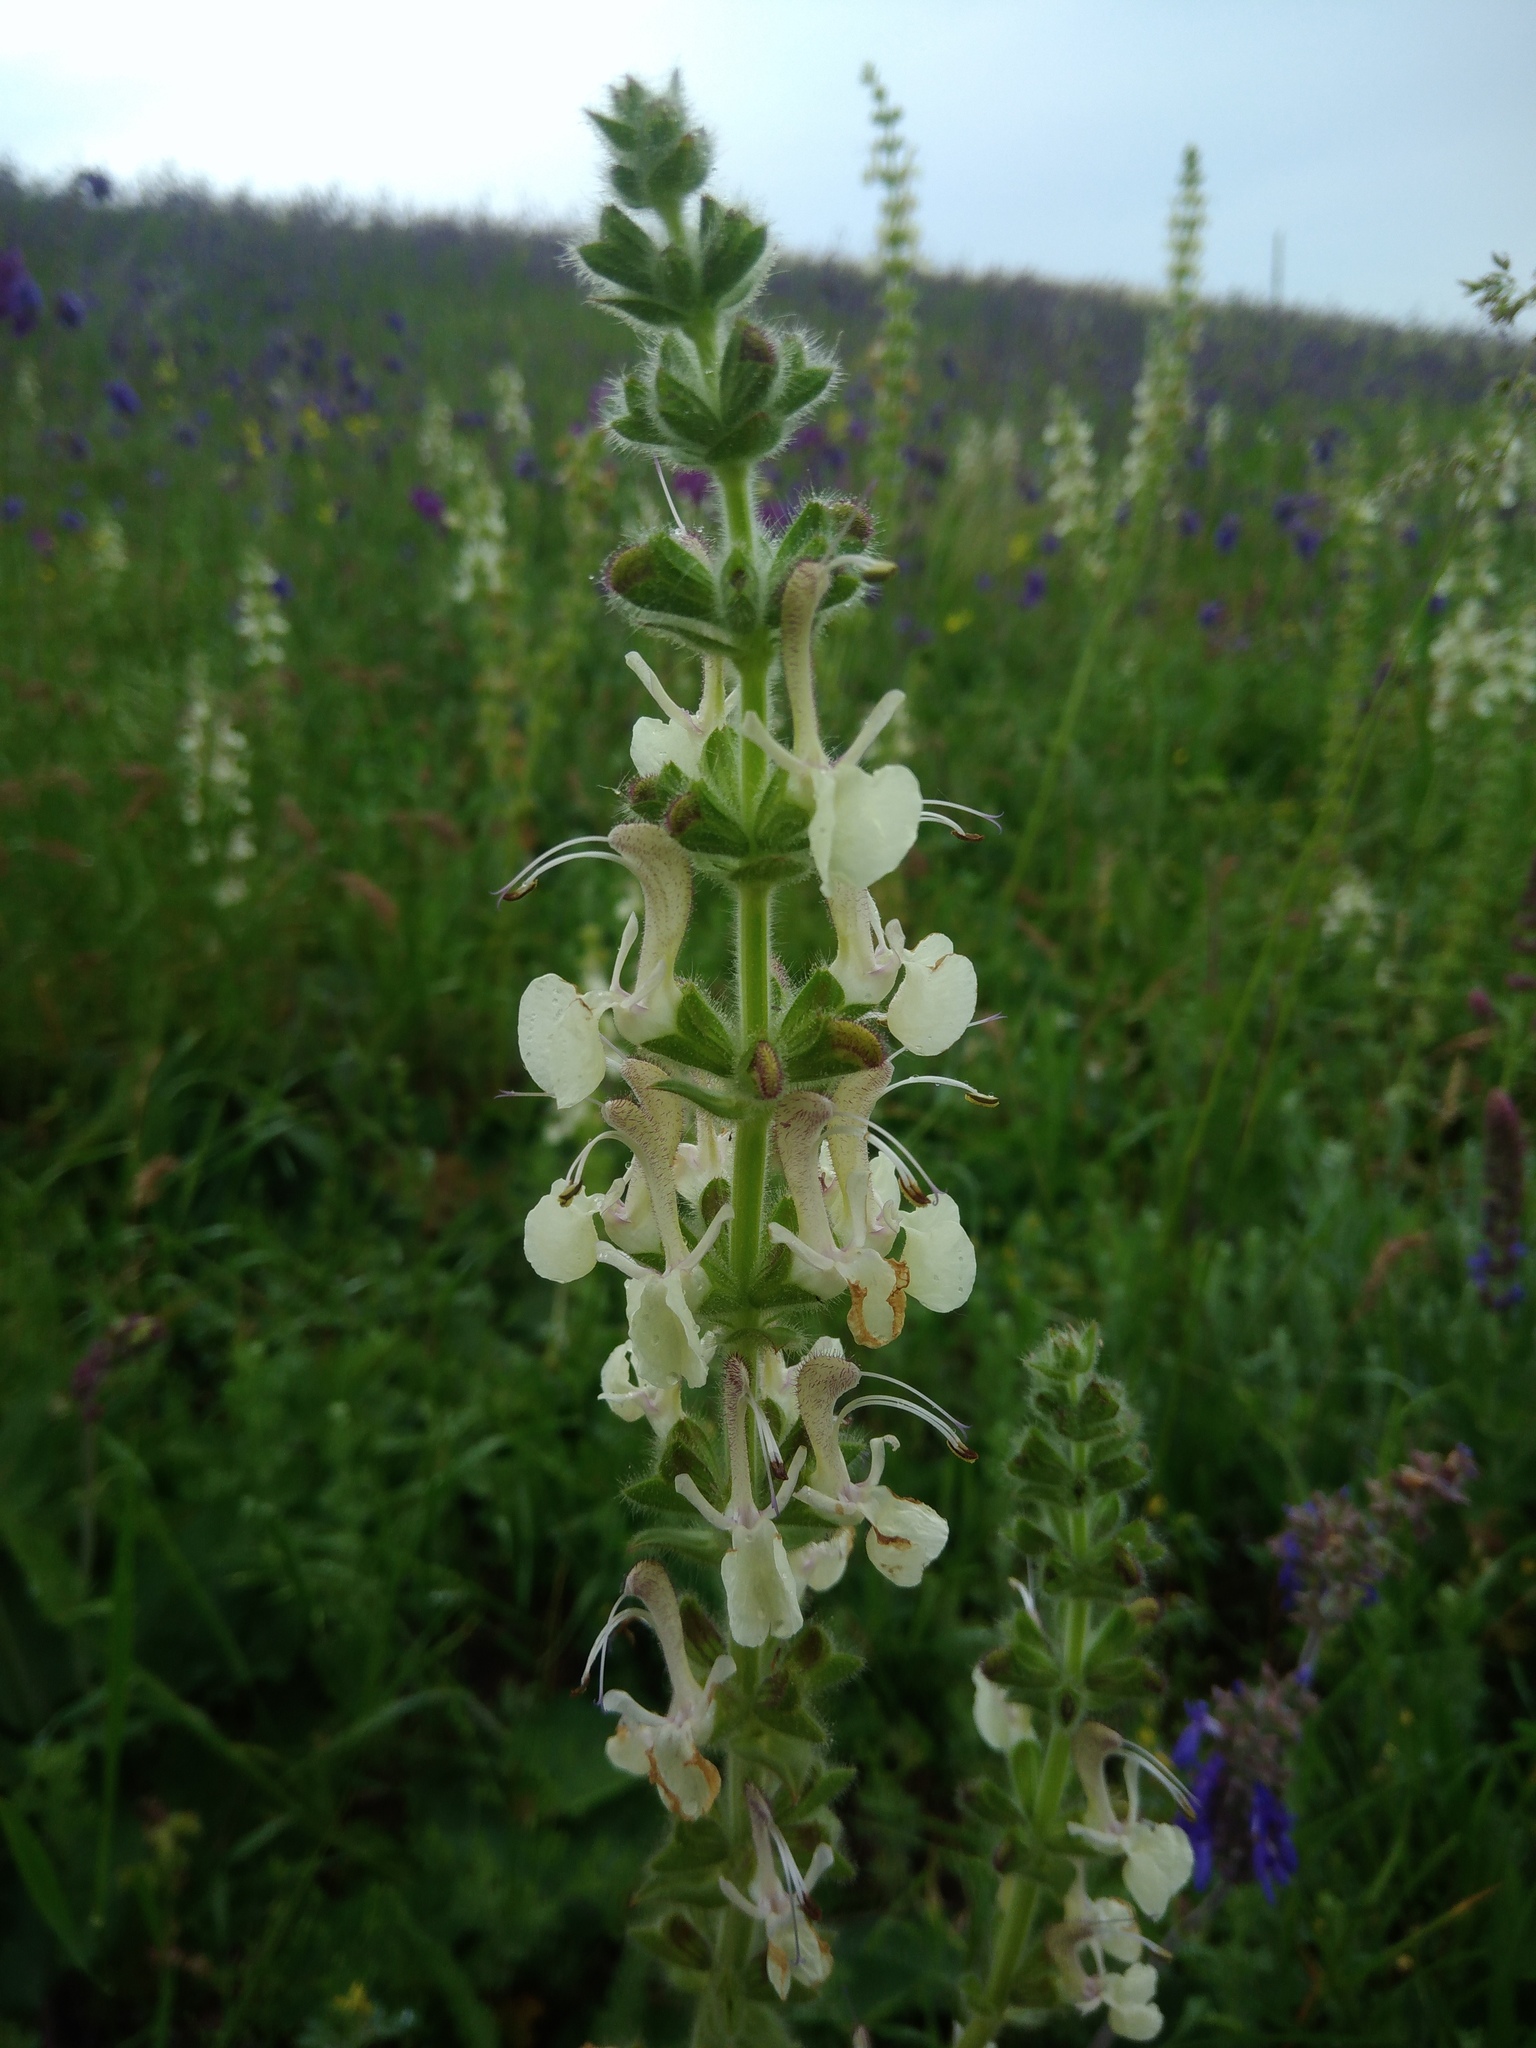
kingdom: Plantae
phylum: Tracheophyta
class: Magnoliopsida
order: Lamiales
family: Lamiaceae
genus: Salvia
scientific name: Salvia revoluta
